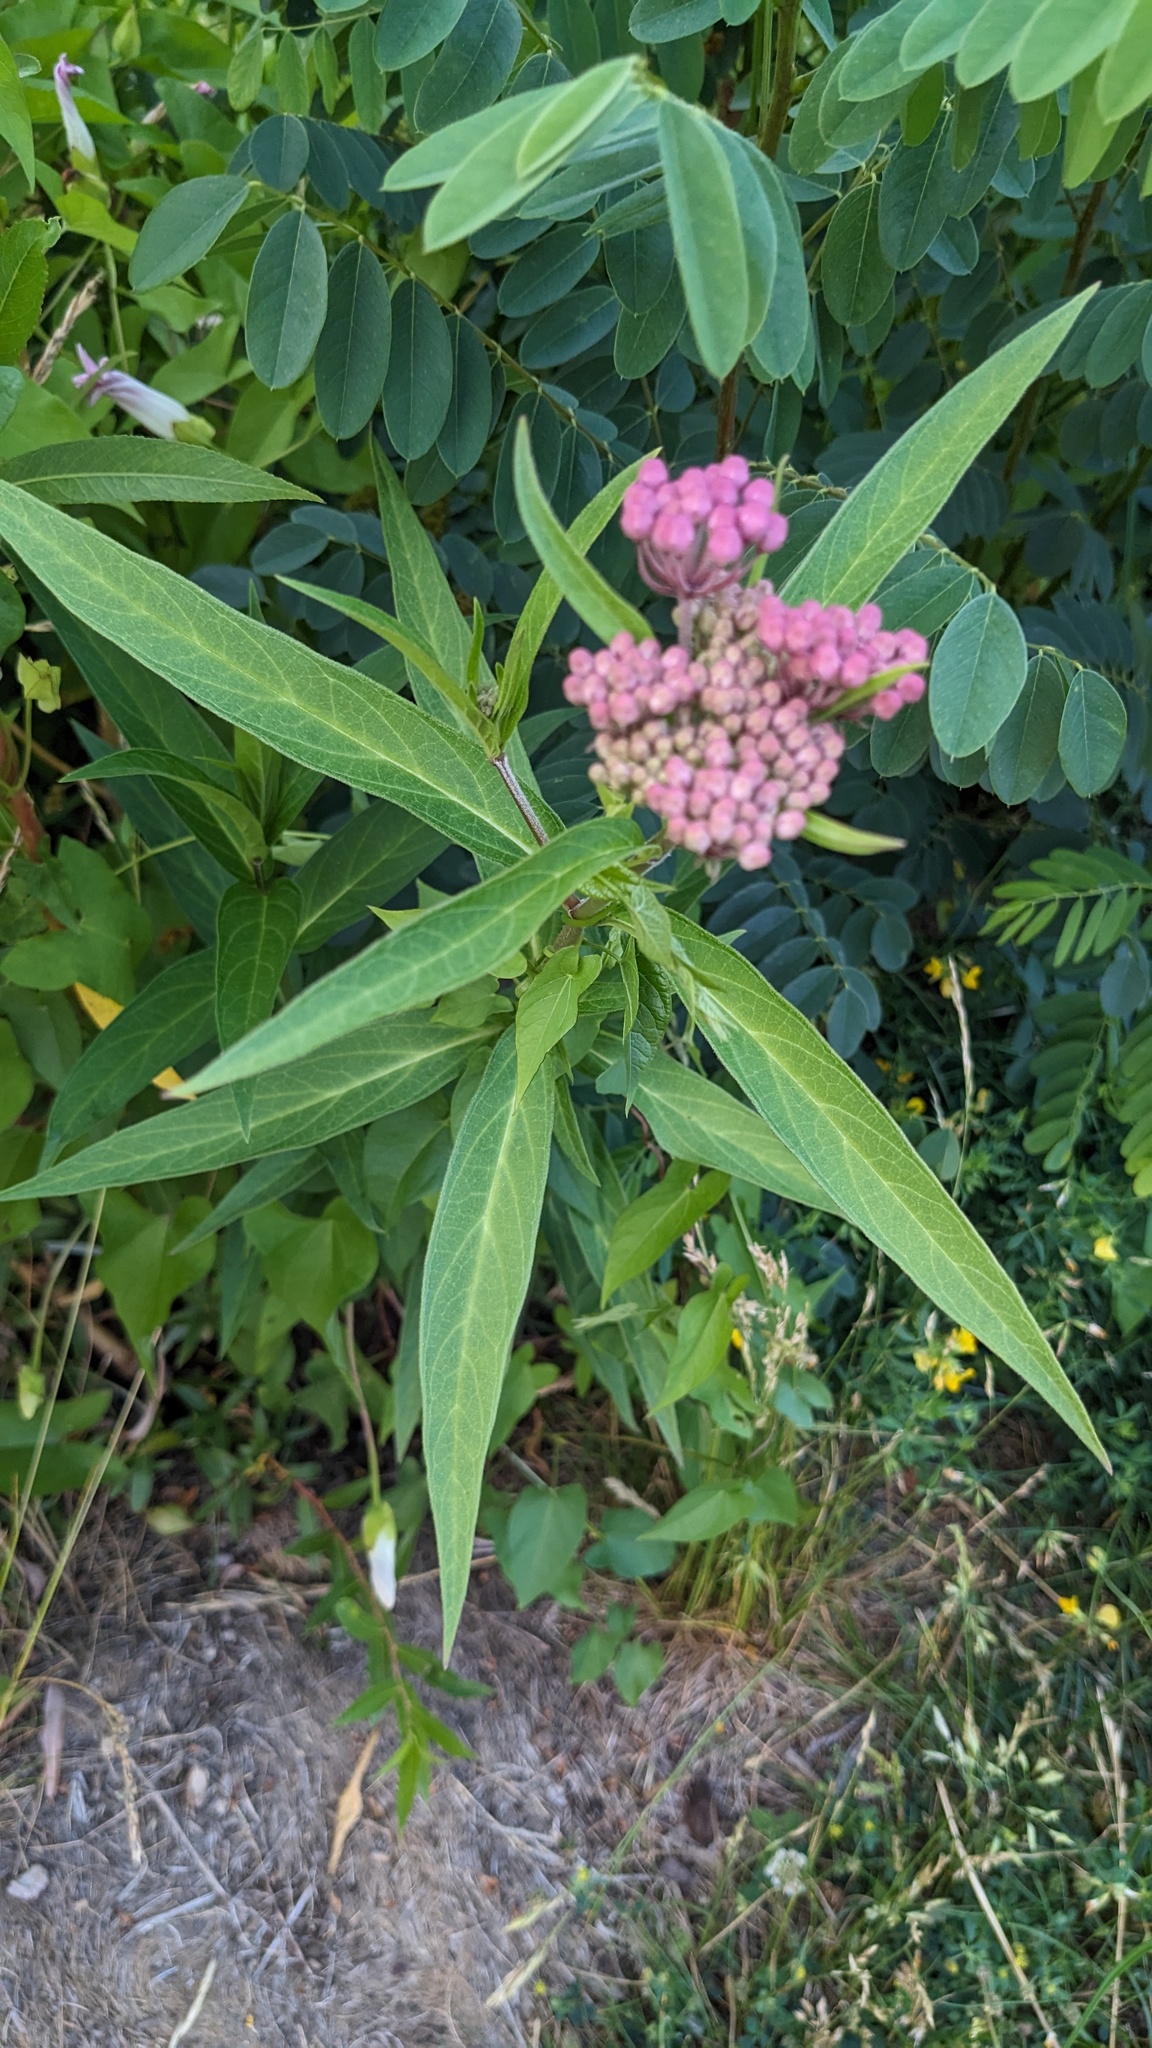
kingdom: Plantae
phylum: Tracheophyta
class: Magnoliopsida
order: Gentianales
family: Apocynaceae
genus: Asclepias
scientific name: Asclepias incarnata
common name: Swamp milkweed
